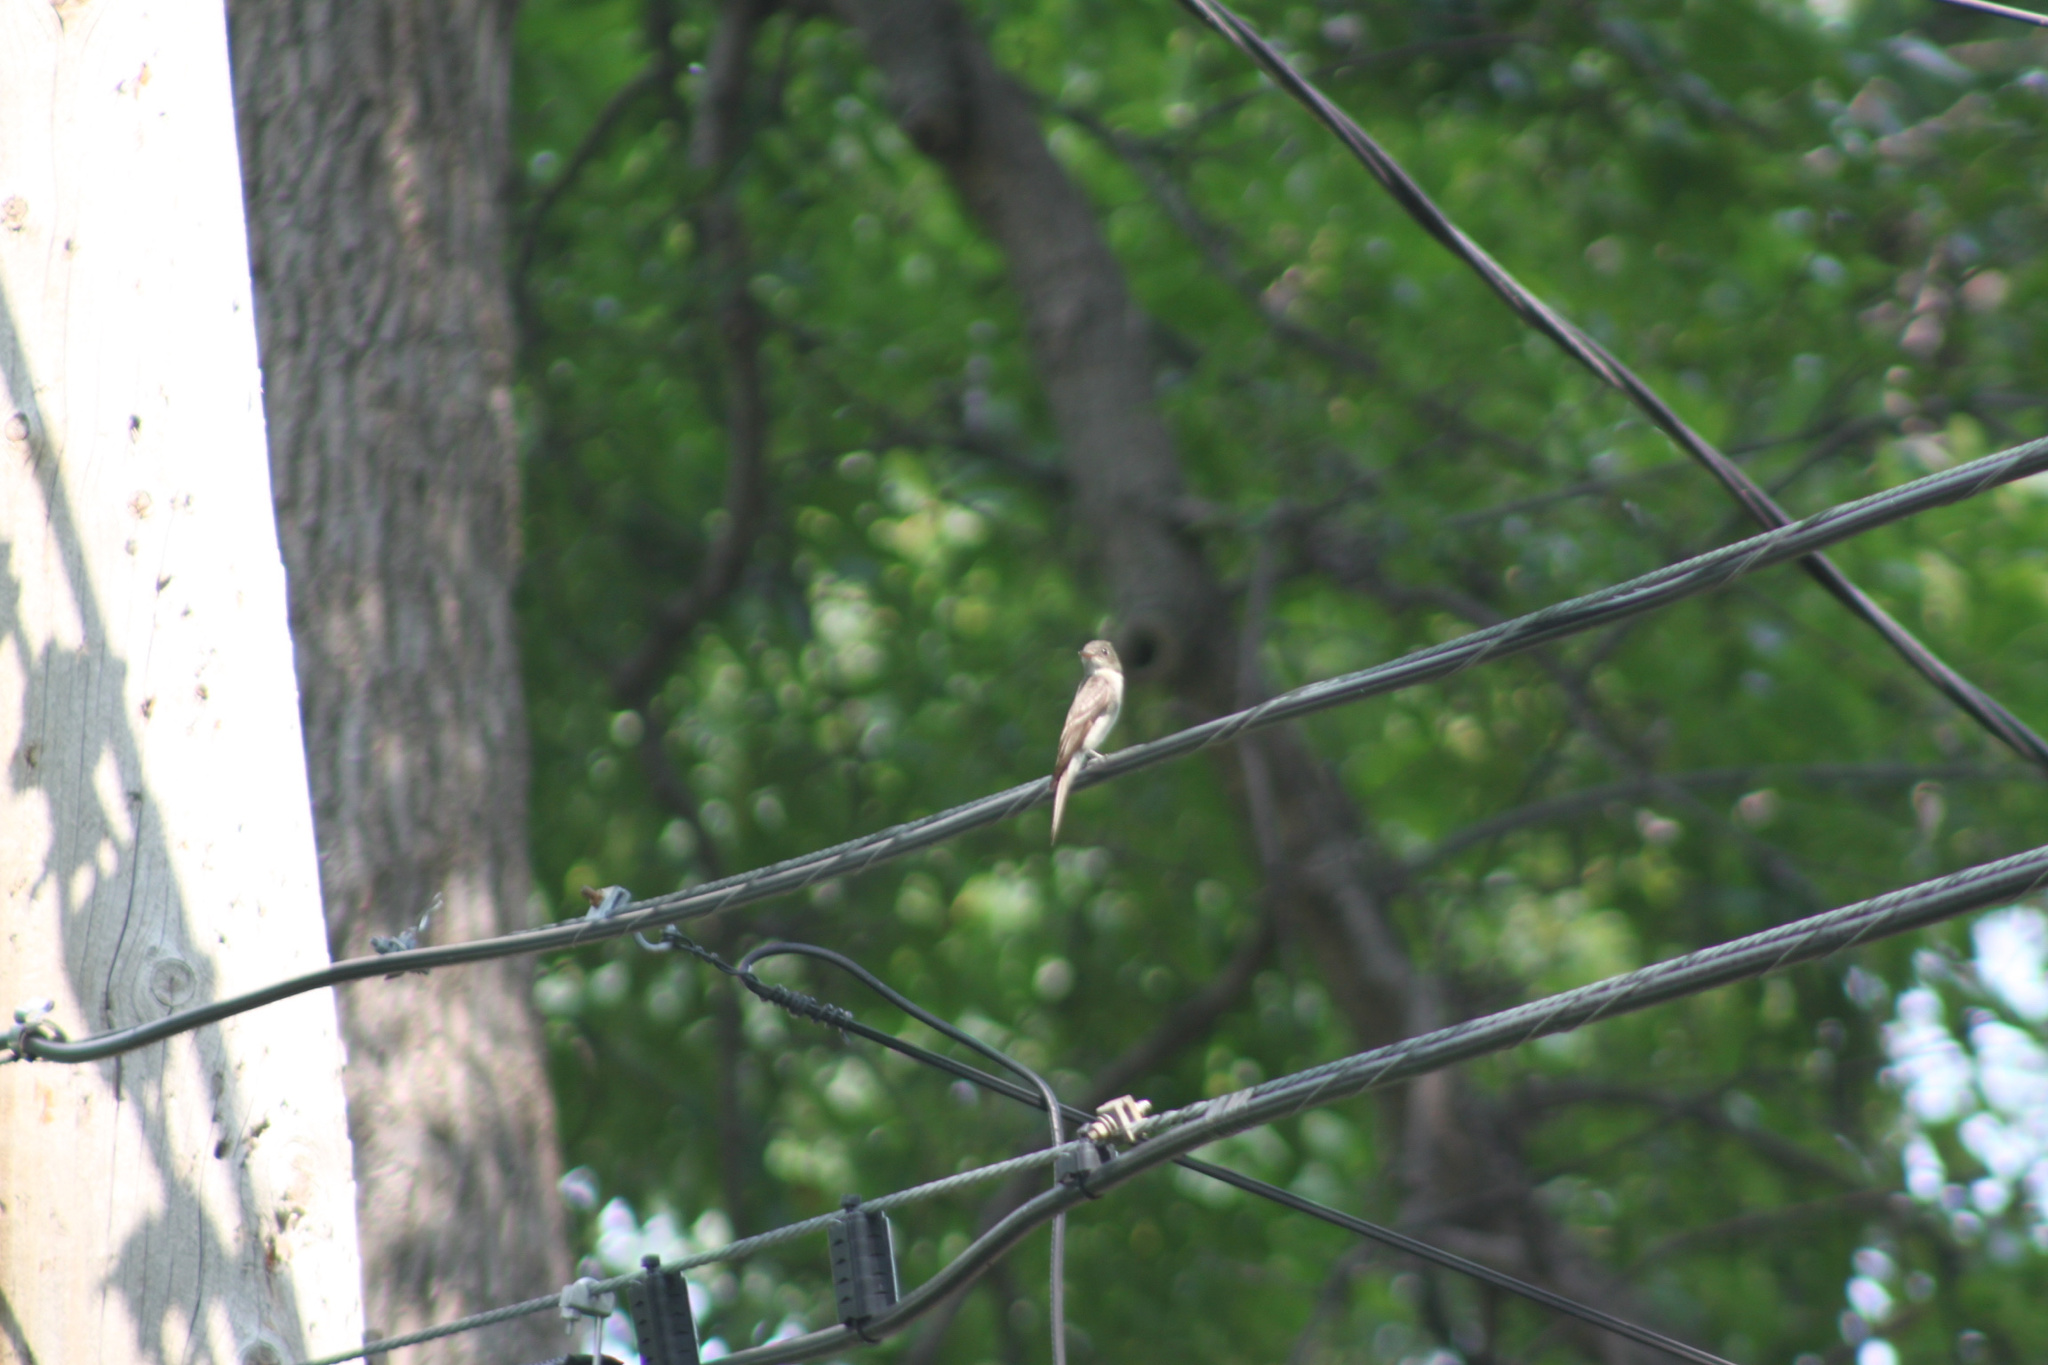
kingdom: Animalia
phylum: Chordata
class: Aves
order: Passeriformes
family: Tyrannidae
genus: Contopus
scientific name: Contopus virens
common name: Eastern wood-pewee
